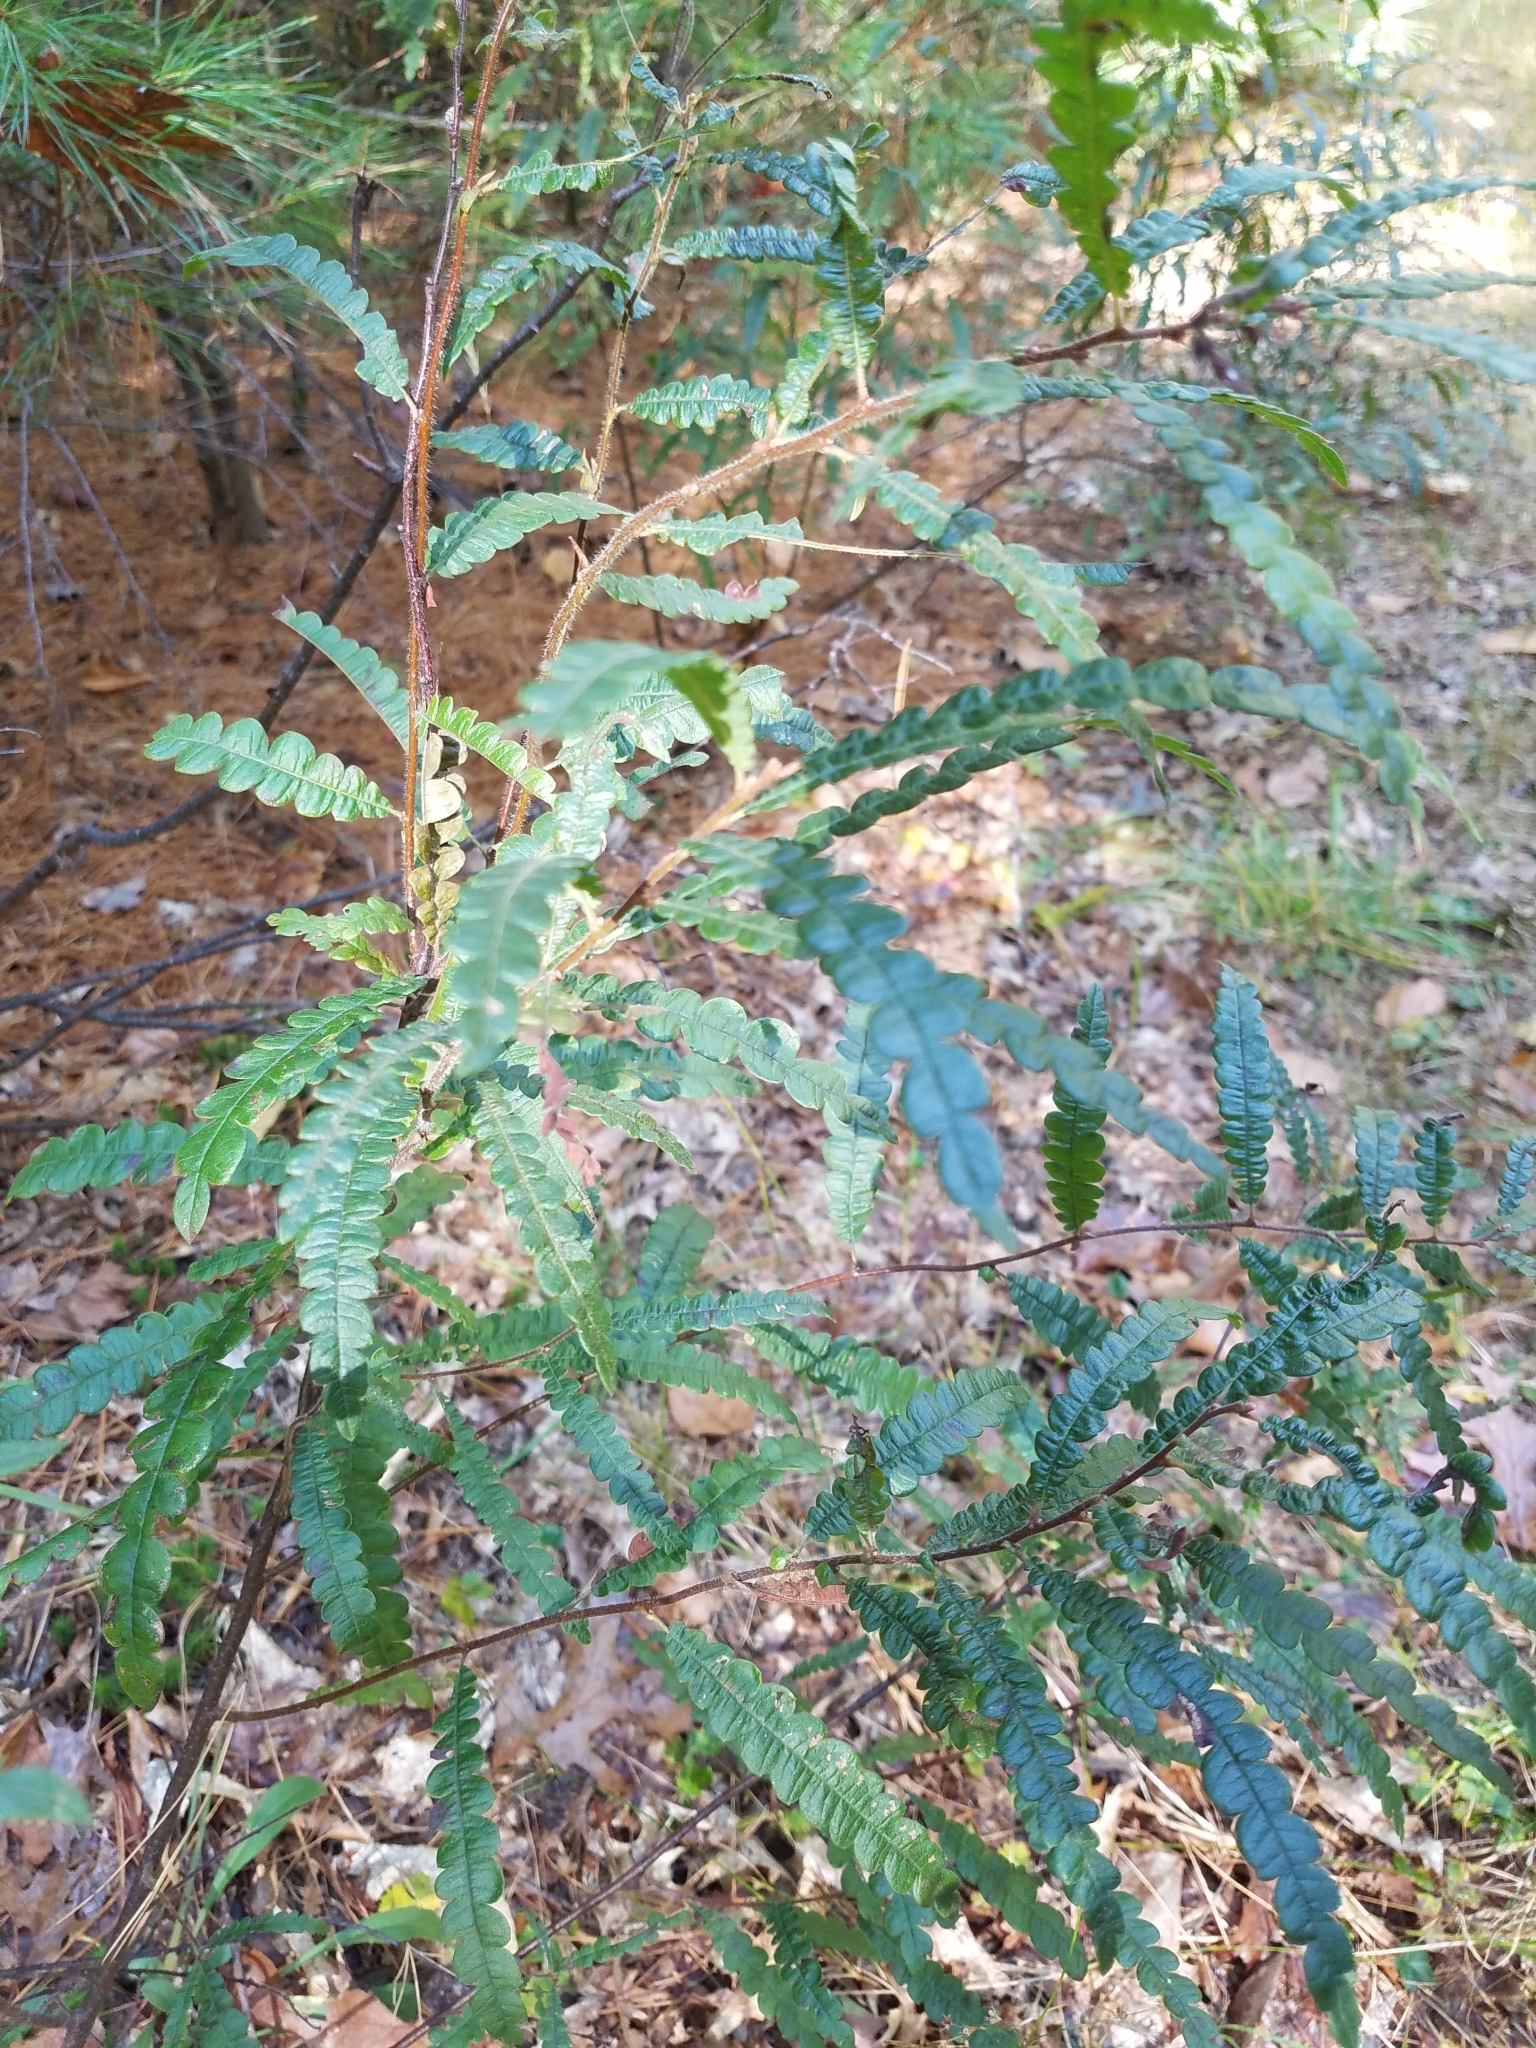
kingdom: Plantae
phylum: Tracheophyta
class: Magnoliopsida
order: Fagales
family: Myricaceae
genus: Comptonia
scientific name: Comptonia peregrina
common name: Sweet-fern
